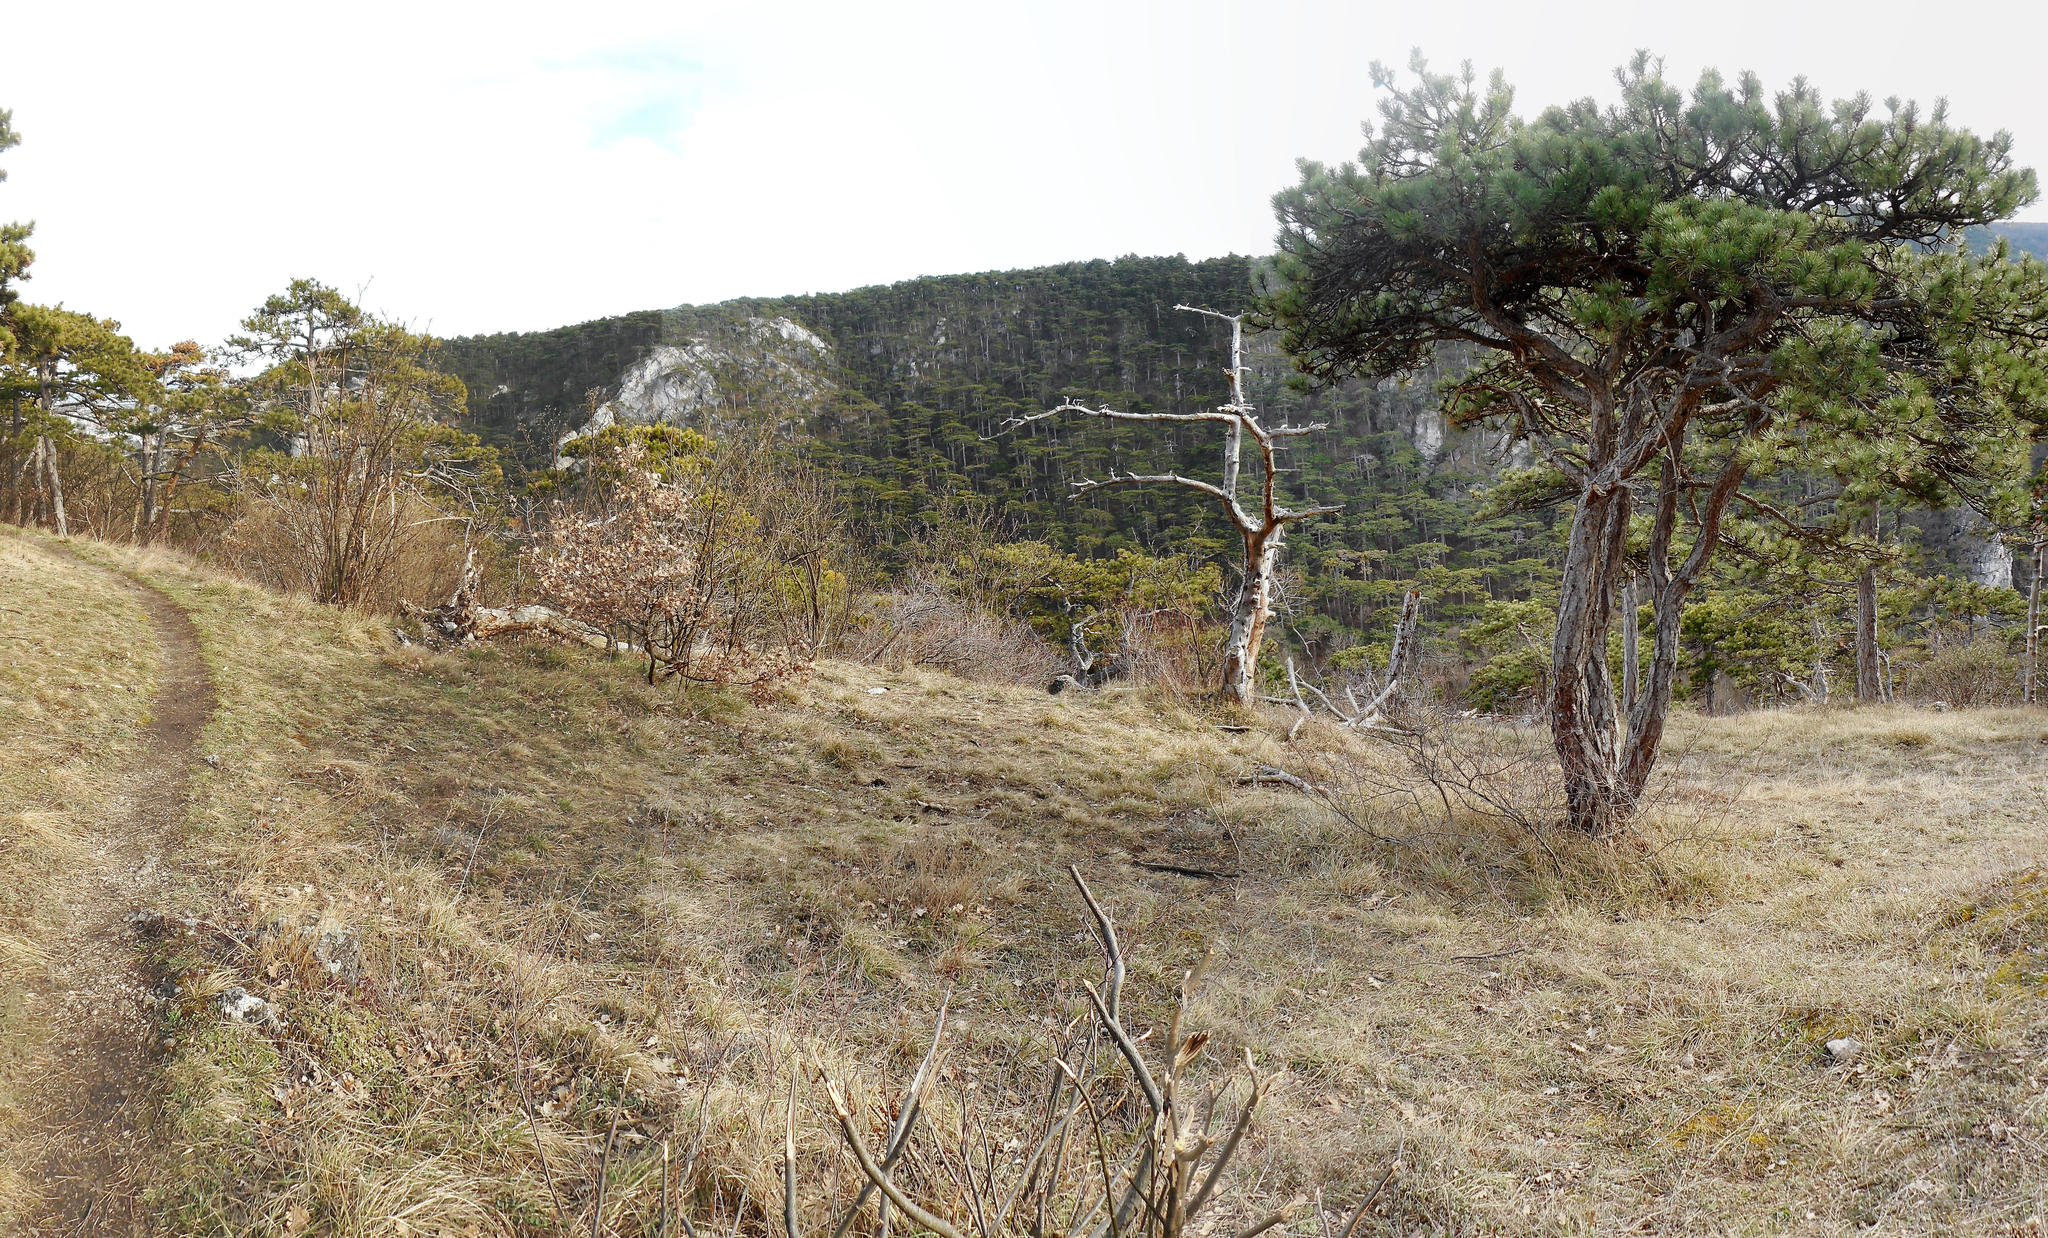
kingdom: Plantae
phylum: Tracheophyta
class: Pinopsida
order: Pinales
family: Pinaceae
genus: Pinus
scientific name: Pinus nigra
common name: Austrian pine
